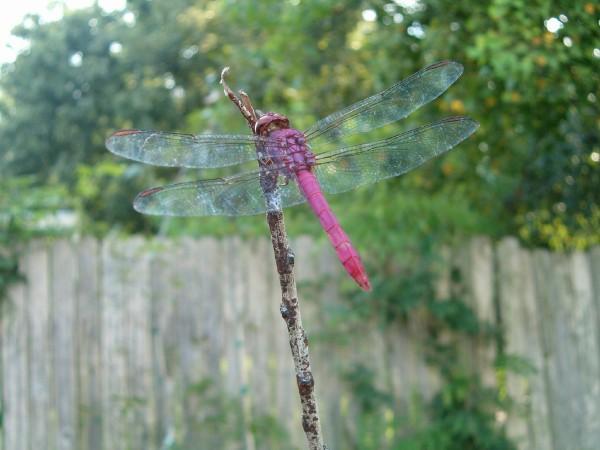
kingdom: Animalia
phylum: Arthropoda
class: Insecta
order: Odonata
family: Libellulidae
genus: Orthemis
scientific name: Orthemis ferruginea
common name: Roseate skimmer
